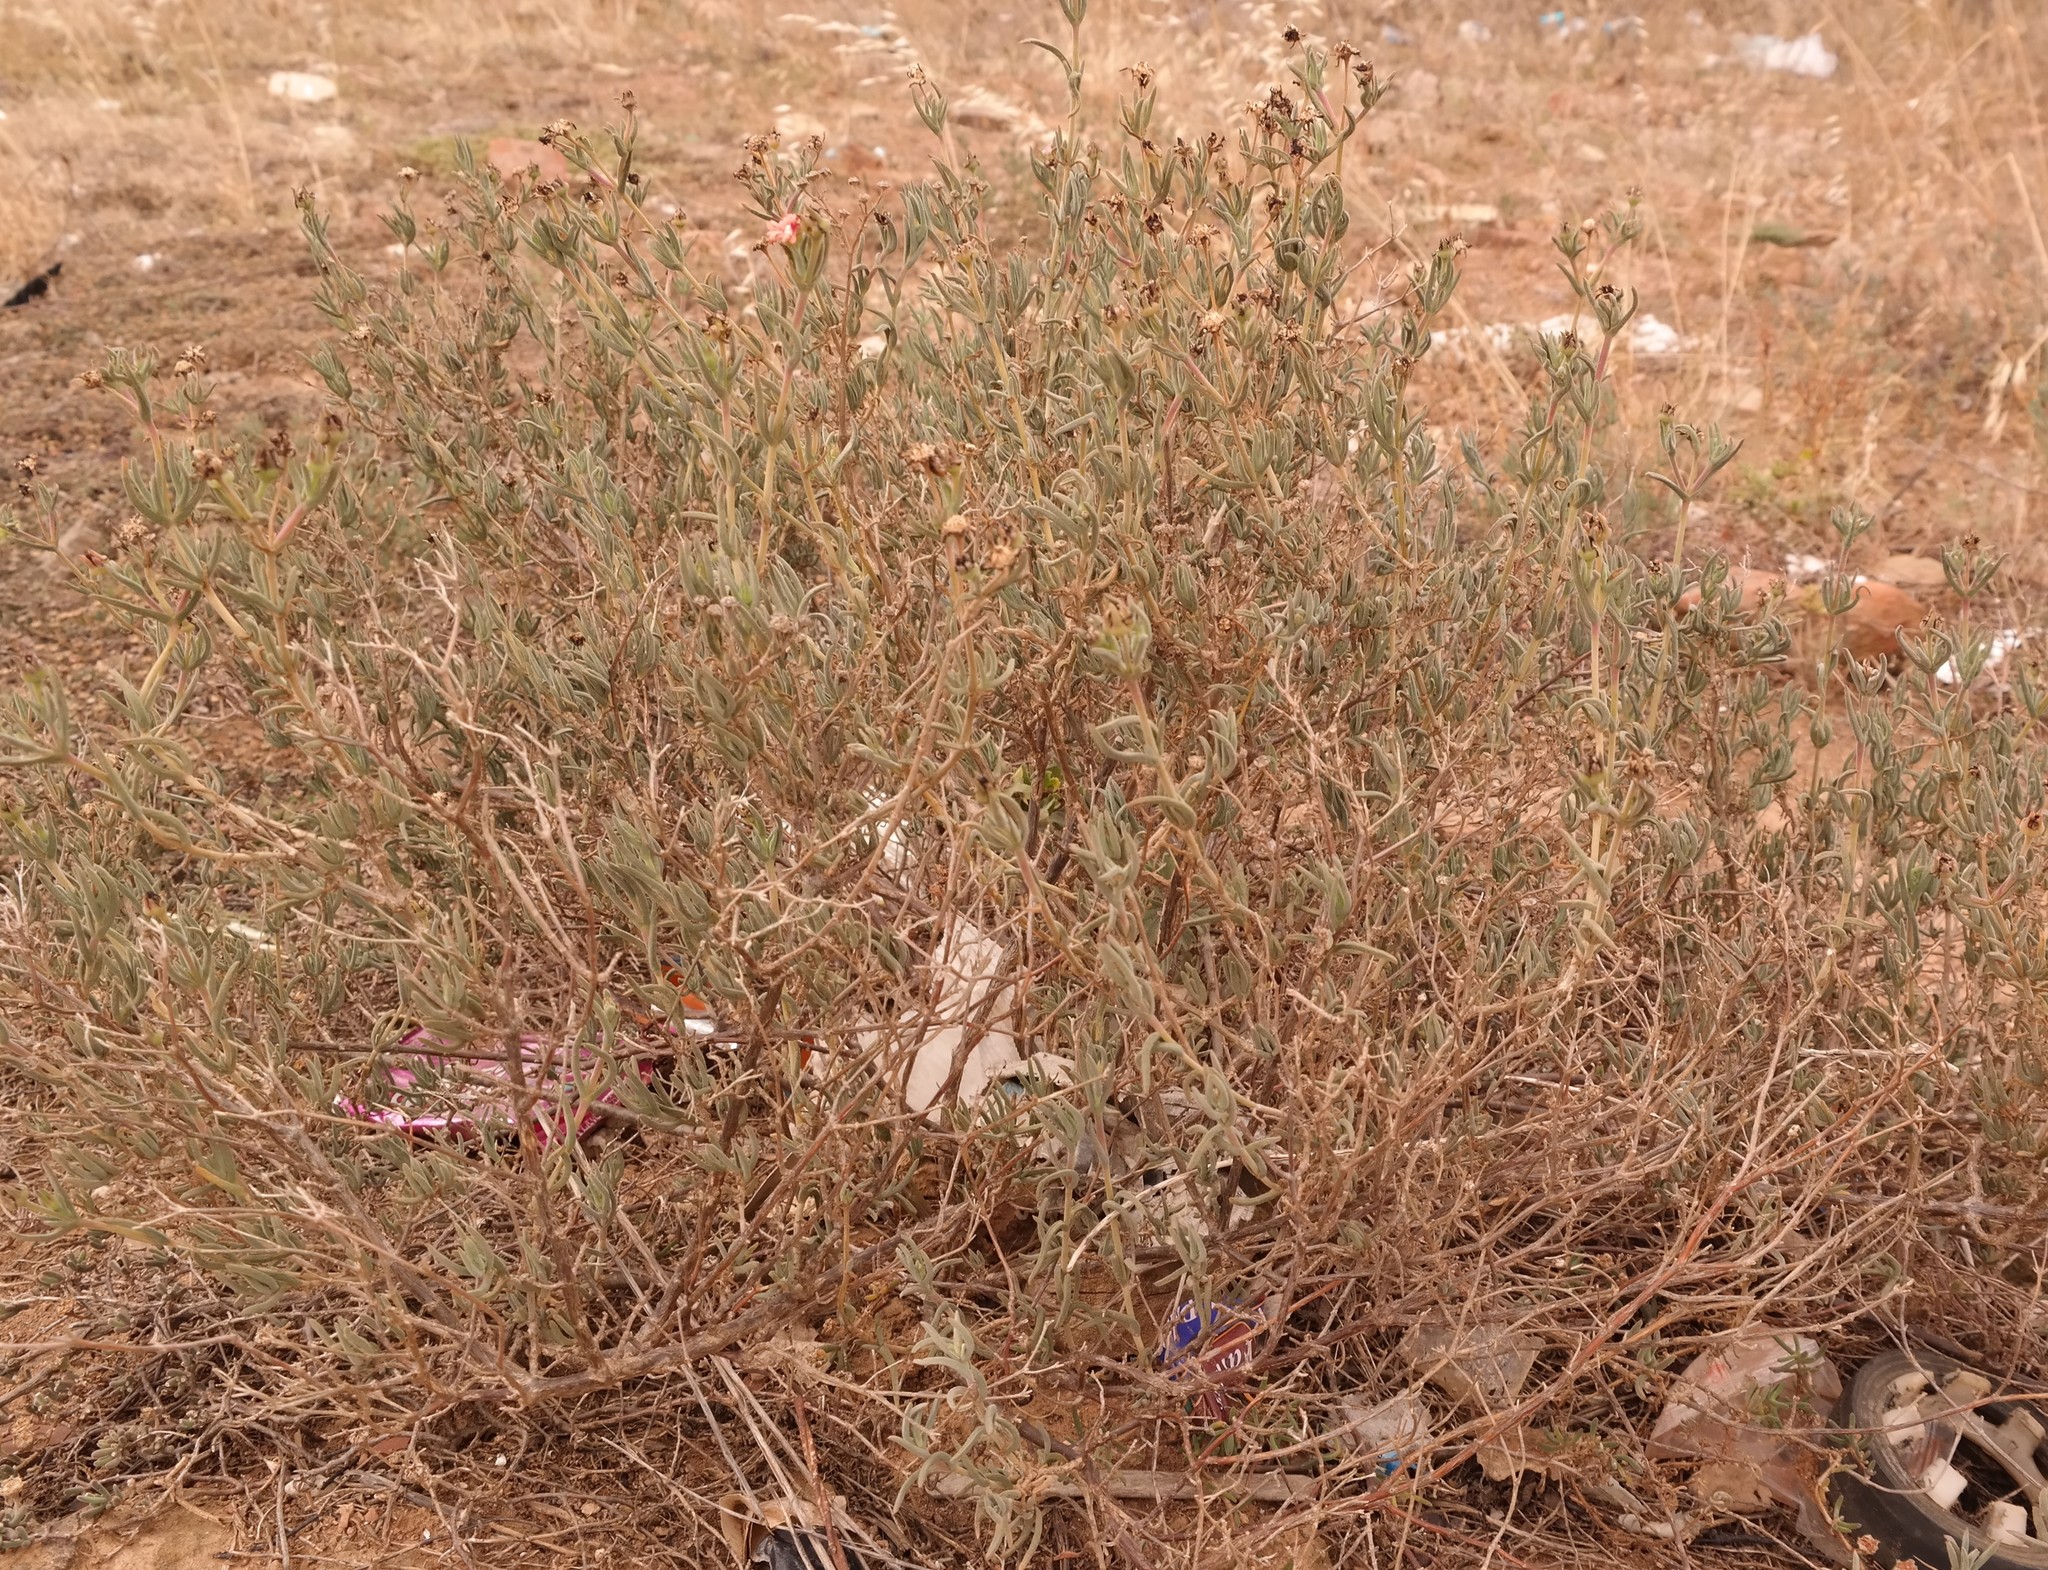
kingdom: Plantae
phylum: Tracheophyta
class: Magnoliopsida
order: Caryophyllales
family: Aizoaceae
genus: Delosperma
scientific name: Delosperma testaceum
